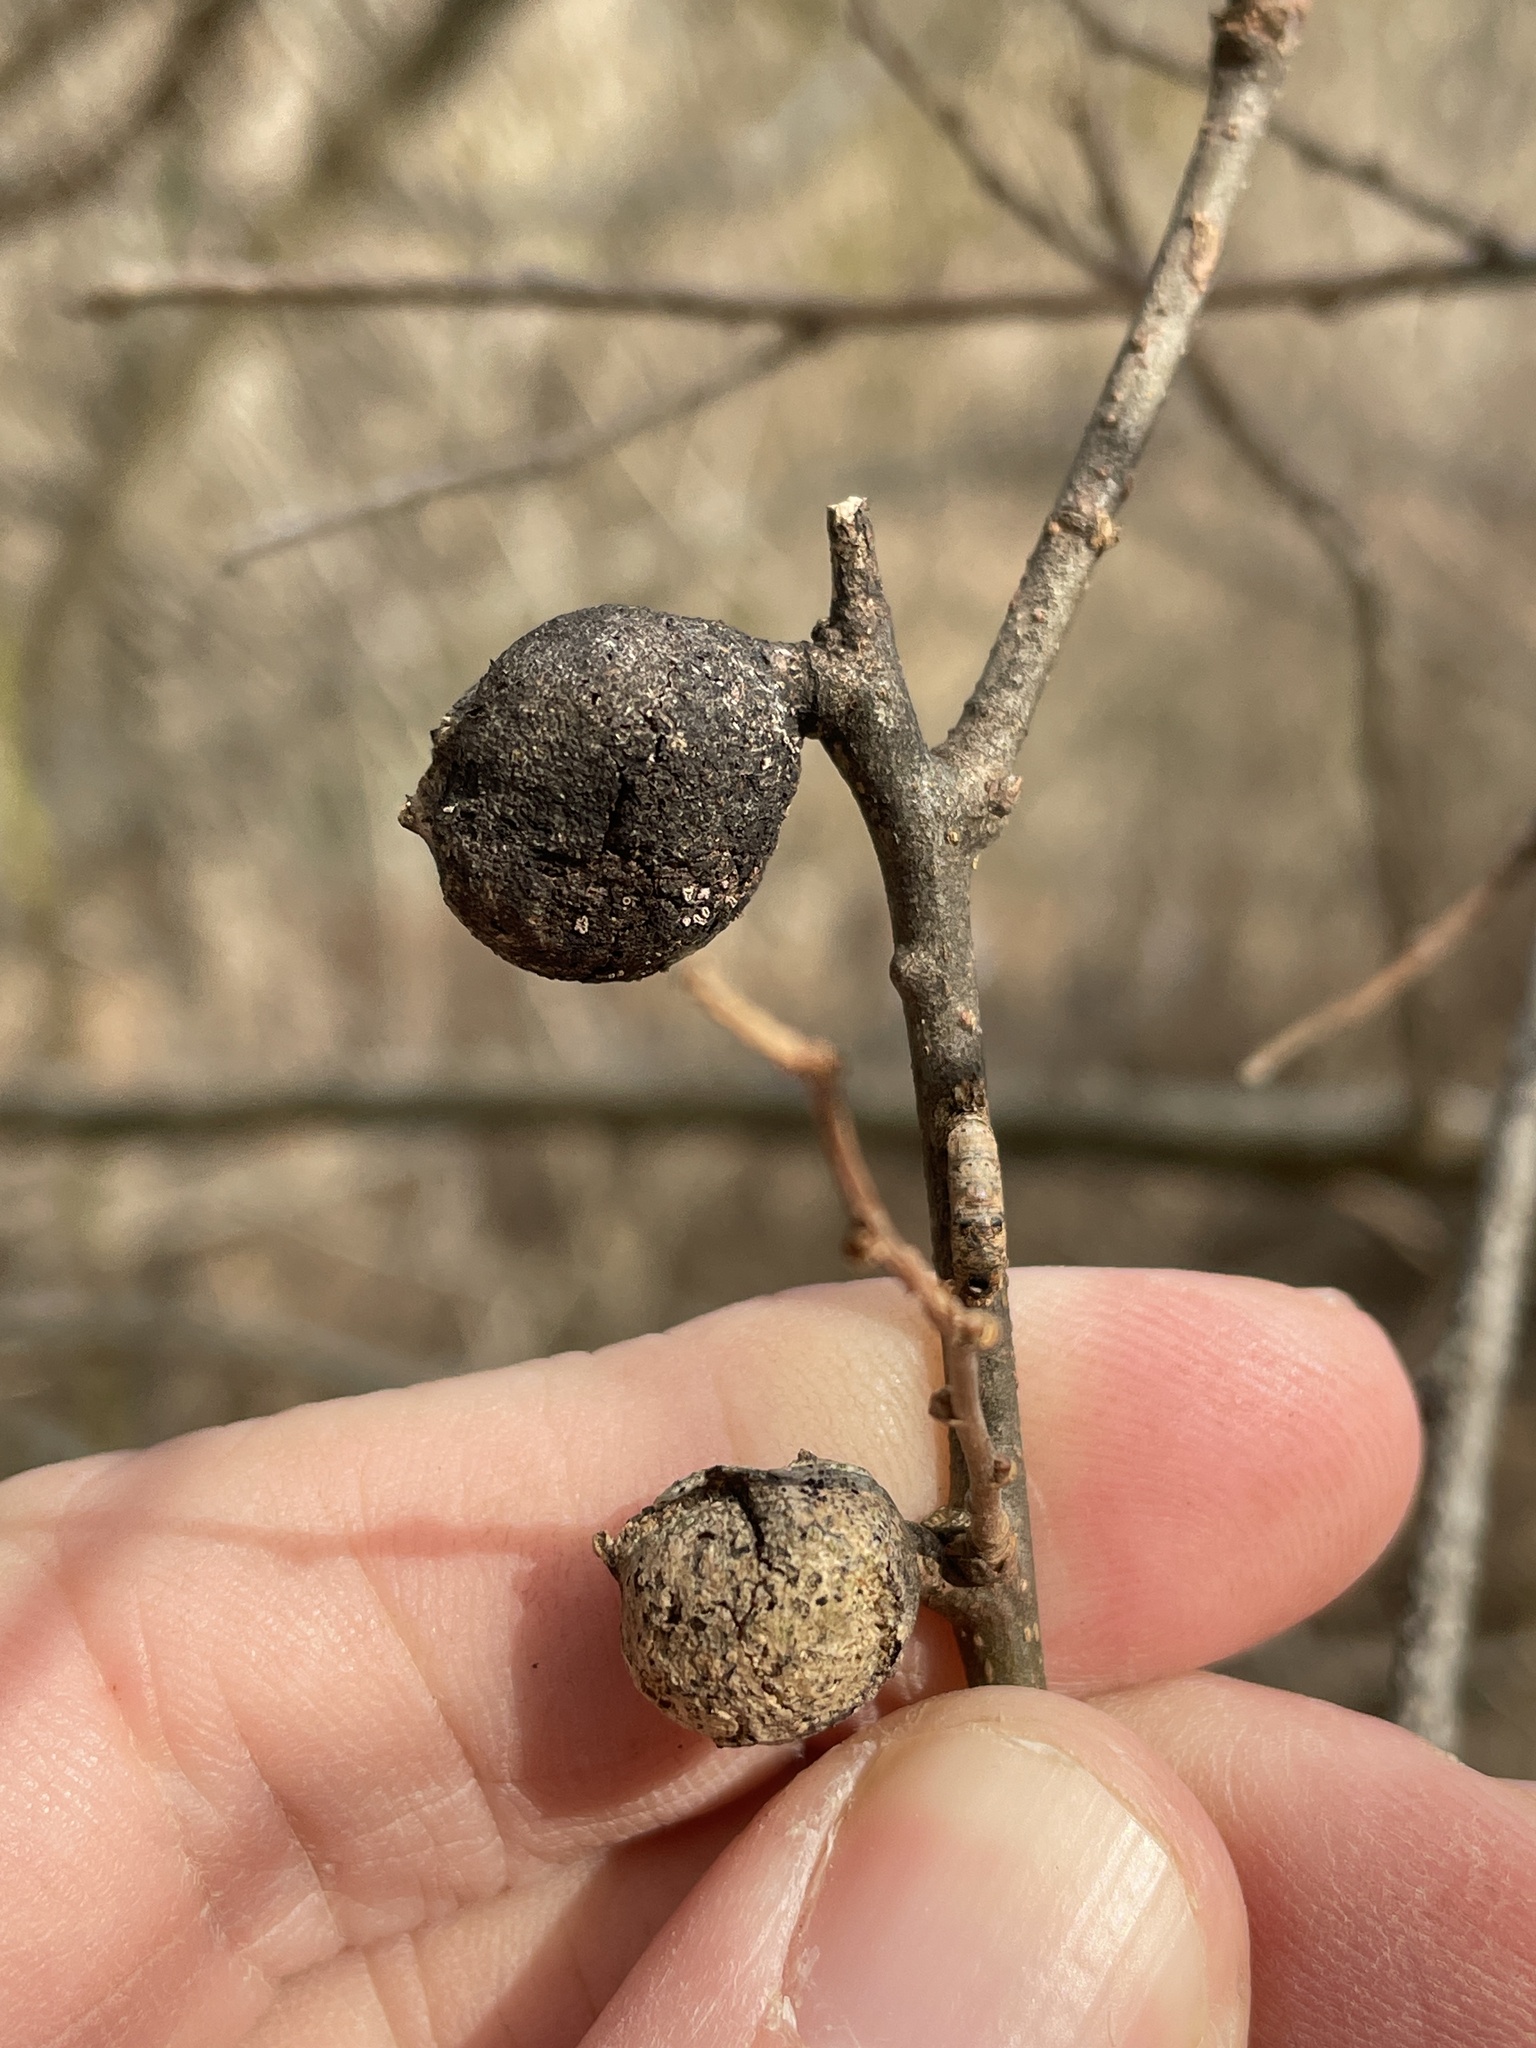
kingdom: Animalia
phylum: Arthropoda
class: Insecta
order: Hemiptera
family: Aphalaridae
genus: Pachypsylla
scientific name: Pachypsylla venusta
